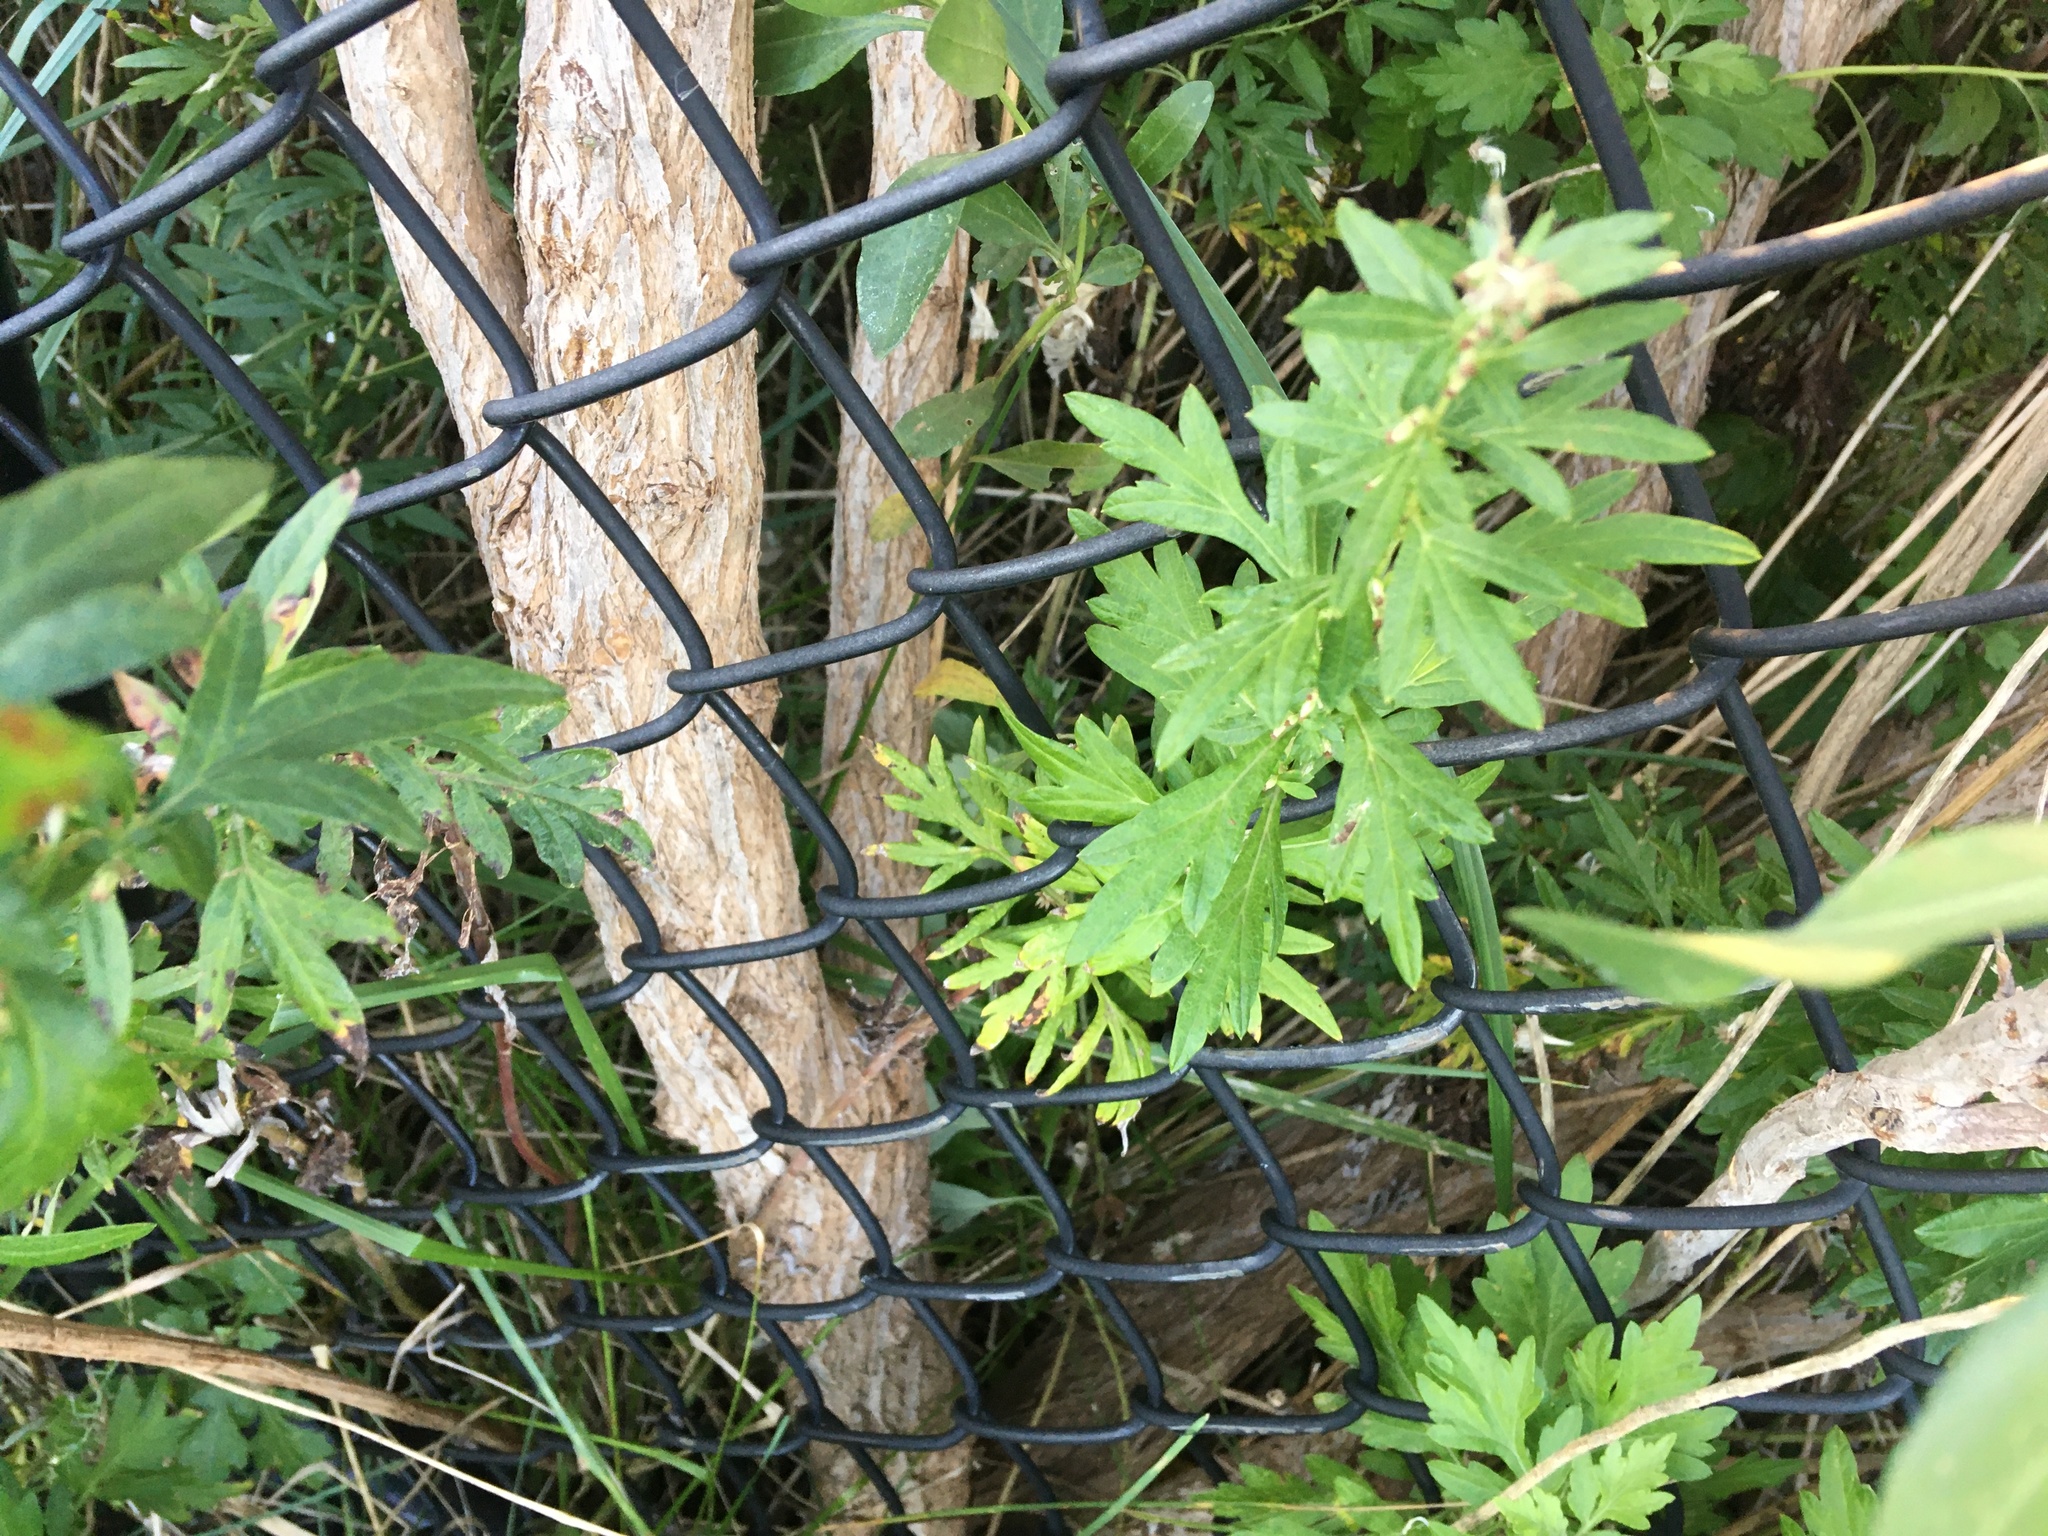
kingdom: Plantae
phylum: Tracheophyta
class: Magnoliopsida
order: Asterales
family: Asteraceae
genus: Artemisia
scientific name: Artemisia vulgaris
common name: Mugwort
